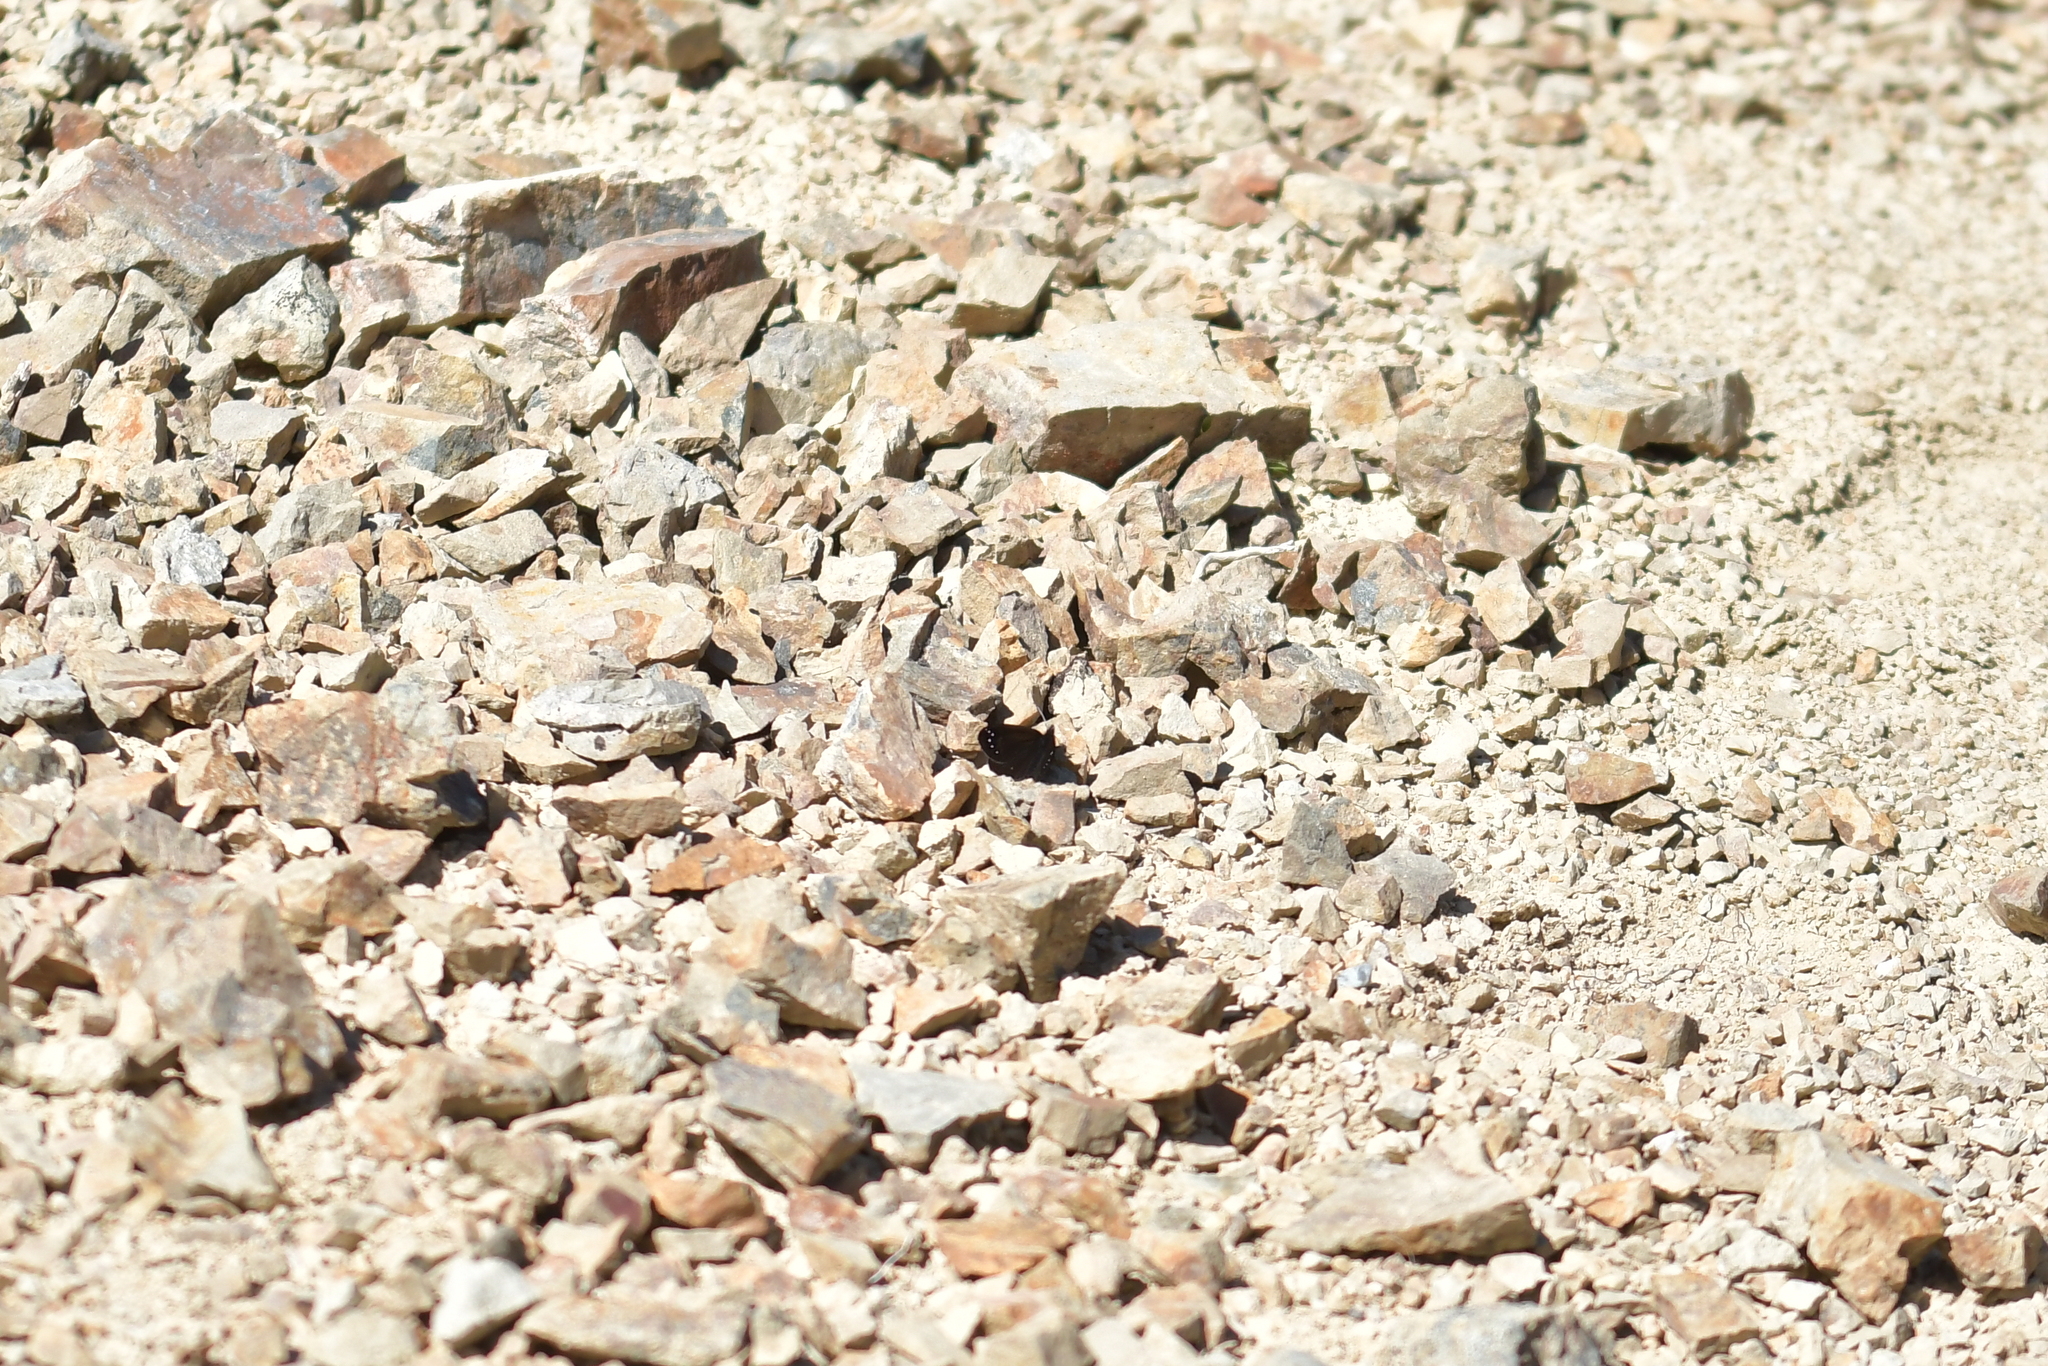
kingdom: Animalia
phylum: Arthropoda
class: Insecta
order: Lepidoptera
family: Nymphalidae
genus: Erebia
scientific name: Erebia Percnodaimon merula
